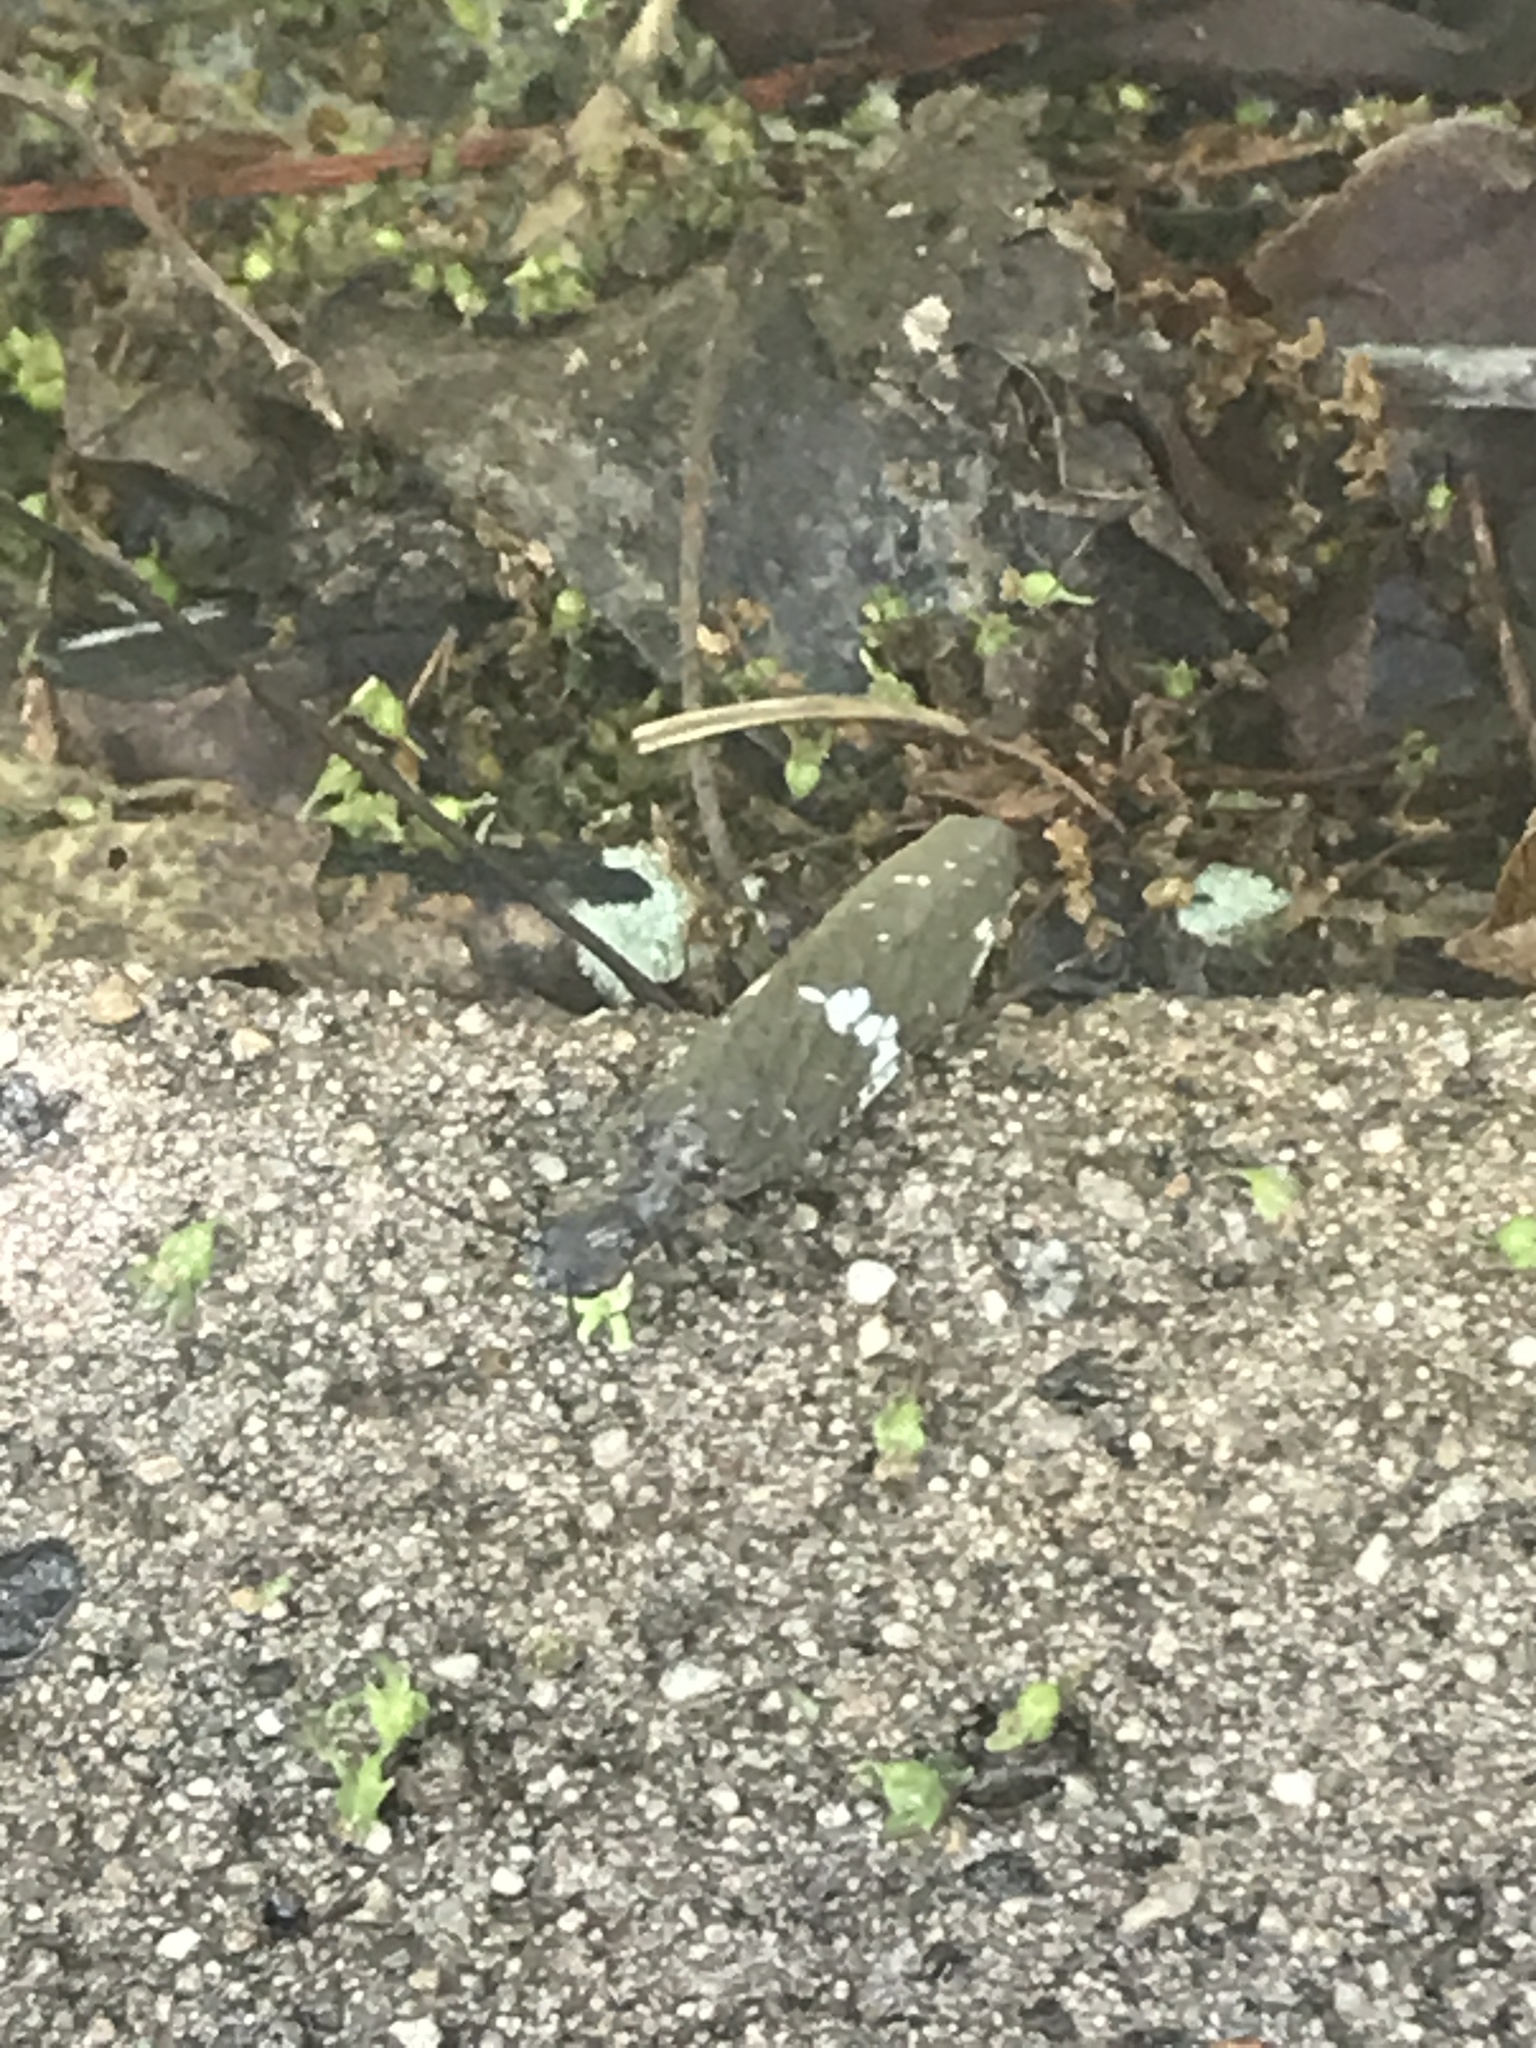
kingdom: Animalia
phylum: Arthropoda
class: Insecta
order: Megaloptera
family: Corydalidae
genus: Nigronia
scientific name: Nigronia serricornis
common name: Serrate dark fishfly
